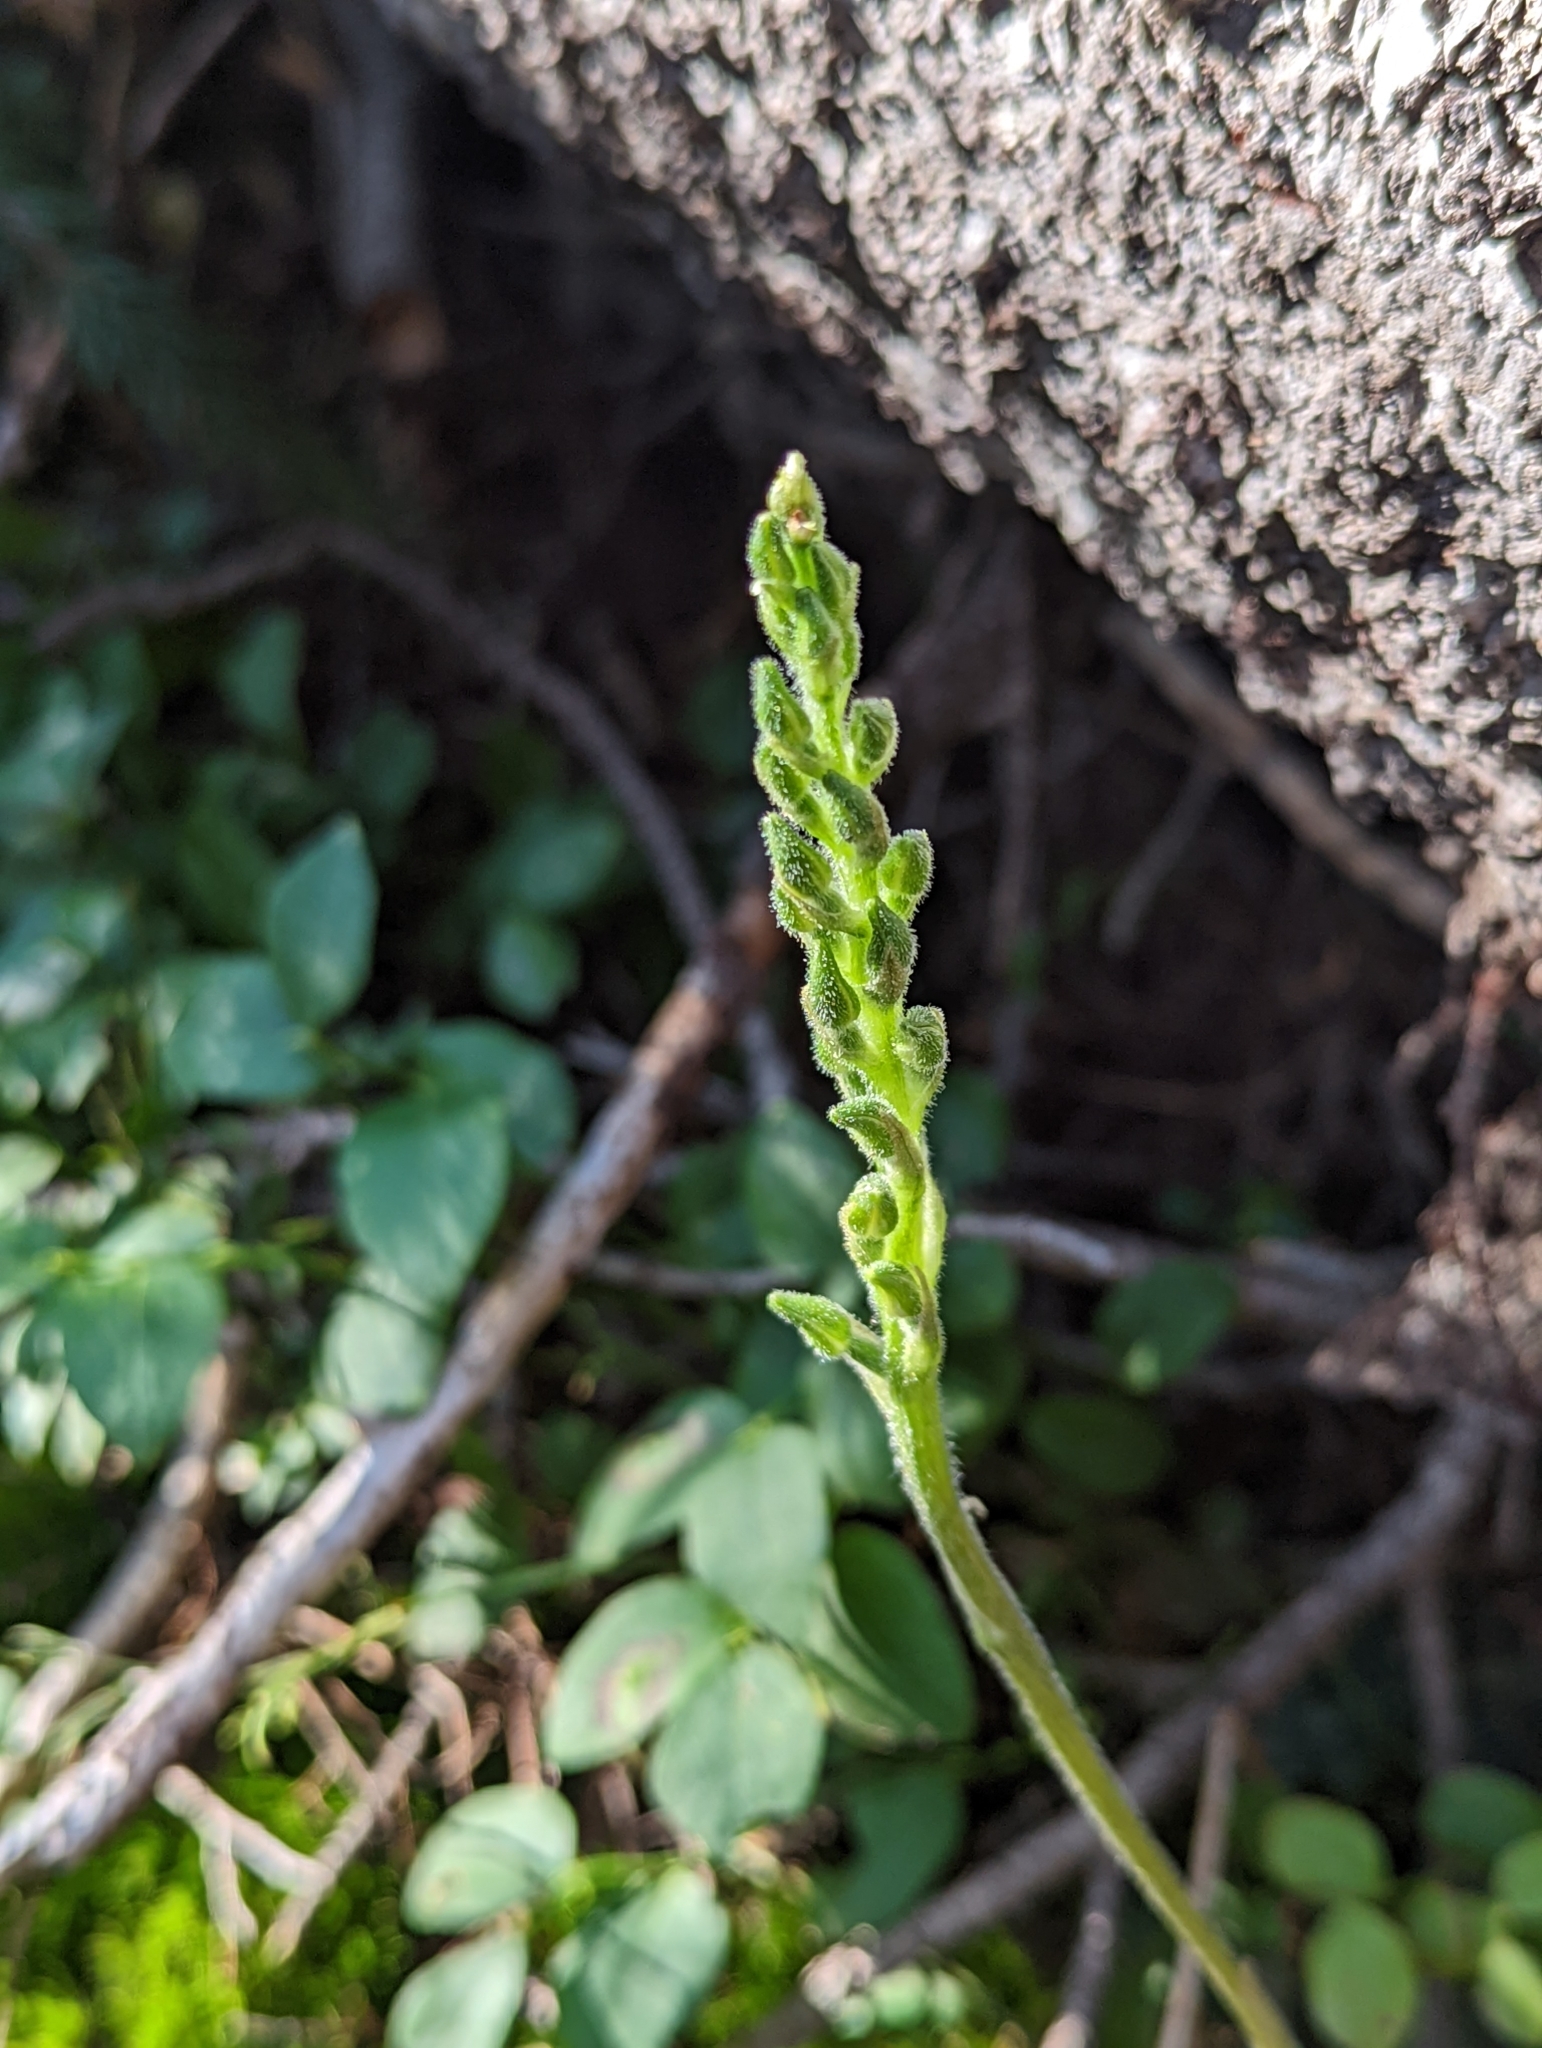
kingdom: Plantae
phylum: Tracheophyta
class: Liliopsida
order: Asparagales
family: Orchidaceae
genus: Goodyera
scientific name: Goodyera oblongifolia
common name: Giant rattlesnake-plantain
